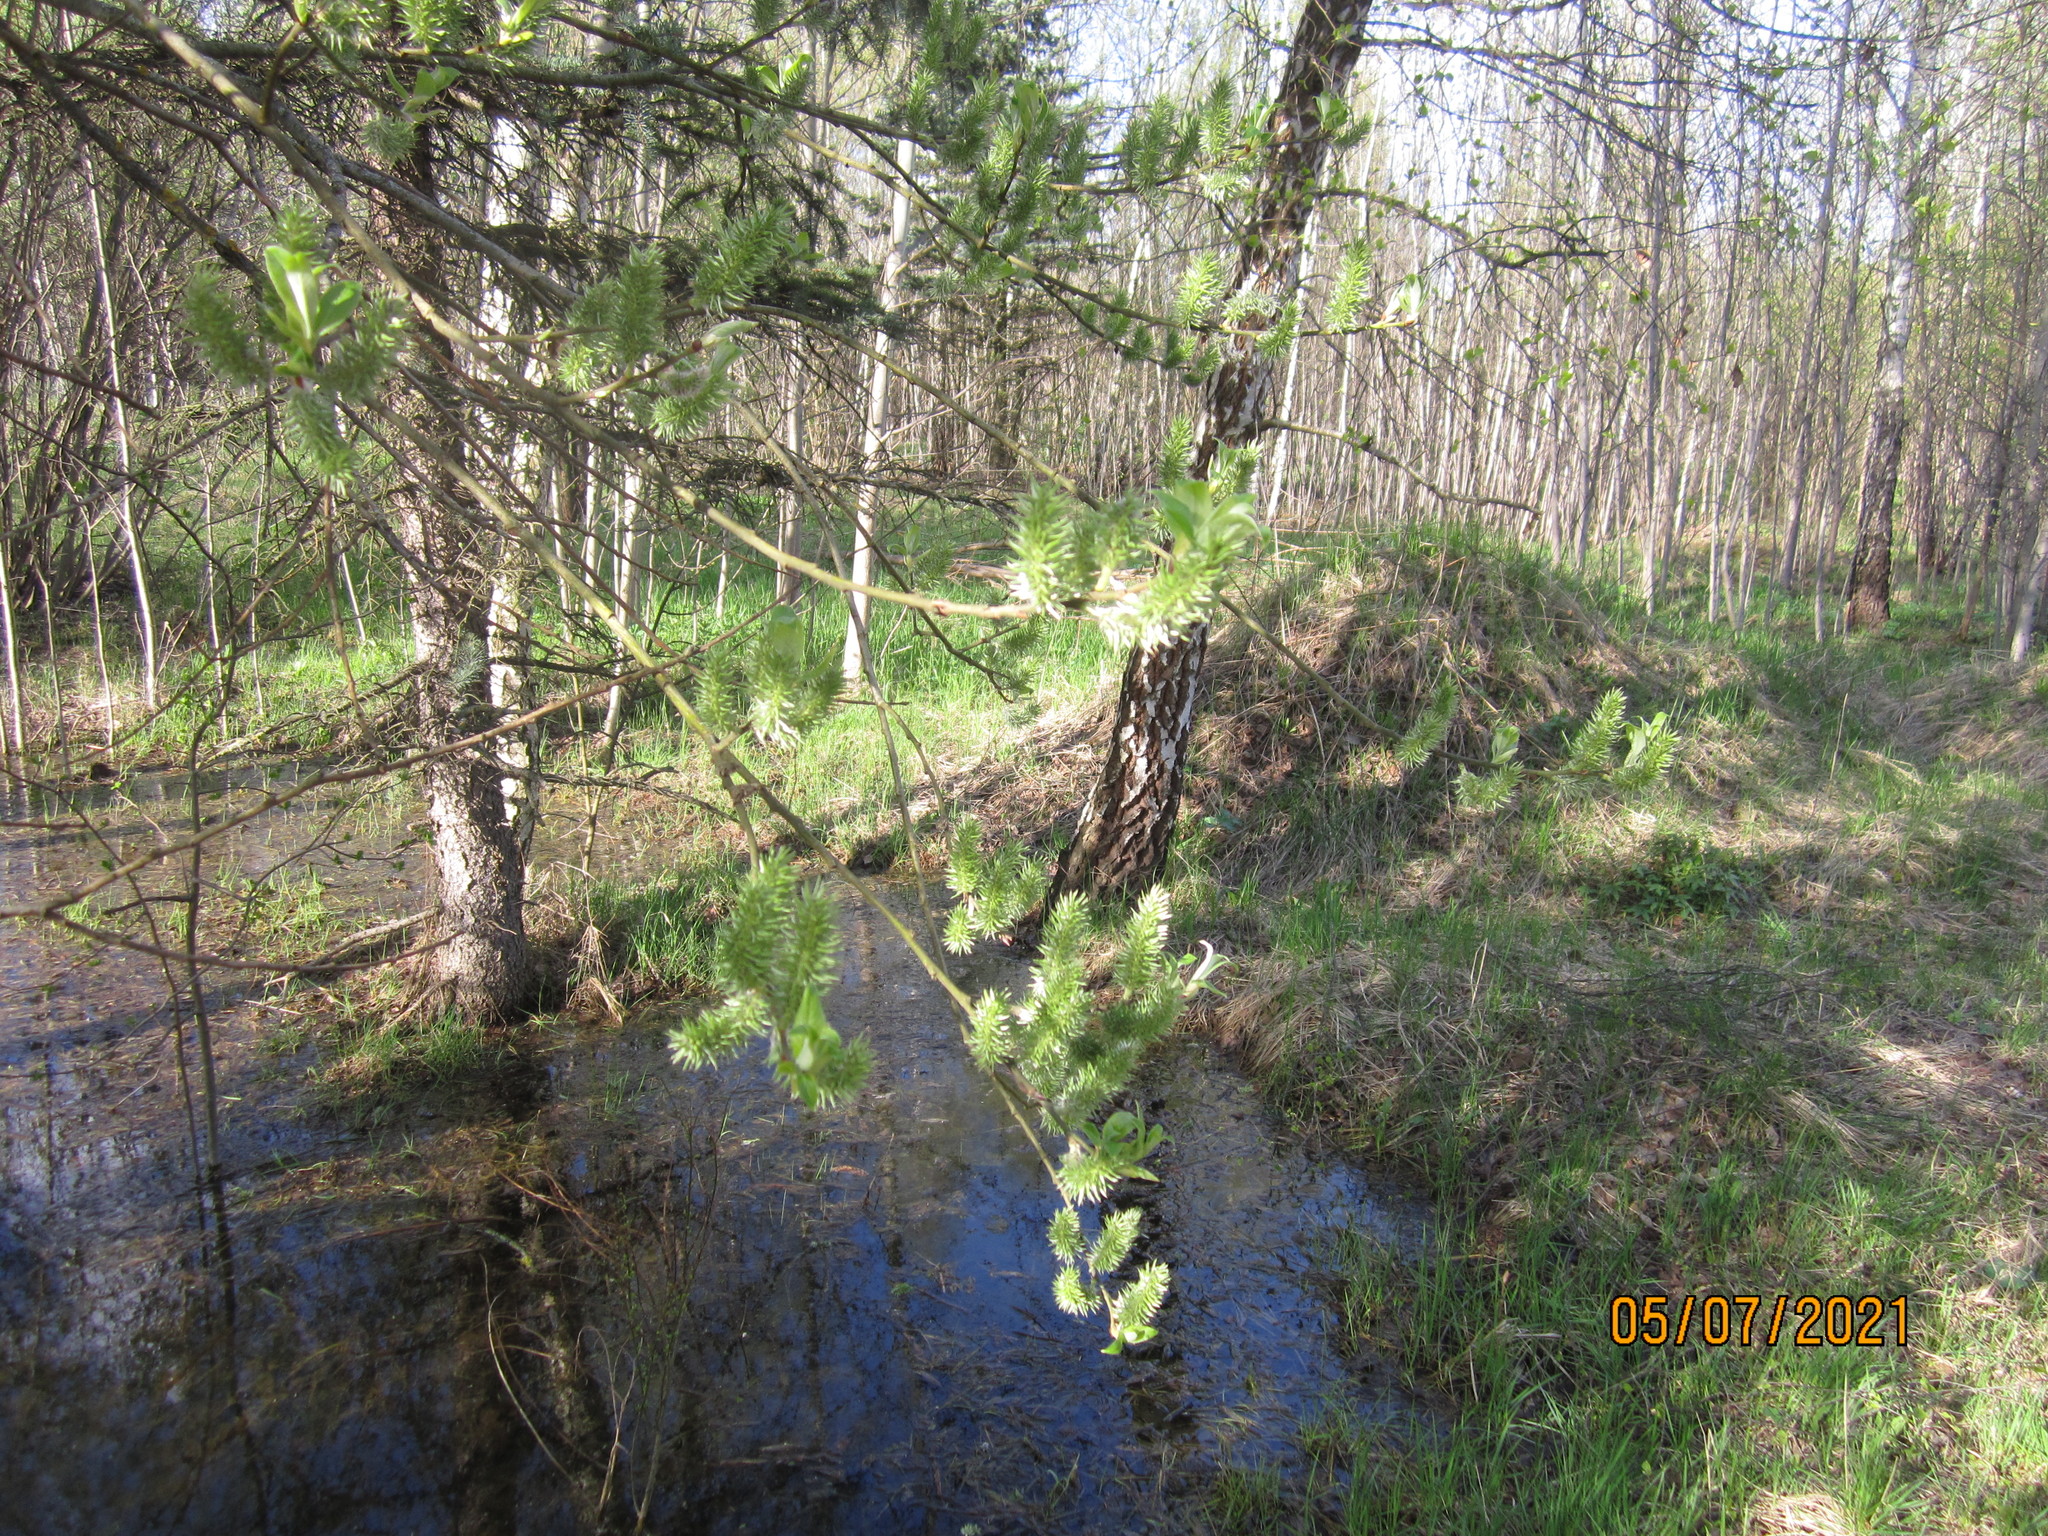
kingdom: Plantae
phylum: Tracheophyta
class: Magnoliopsida
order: Malpighiales
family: Salicaceae
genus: Salix
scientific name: Salix caprea
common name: Goat willow
